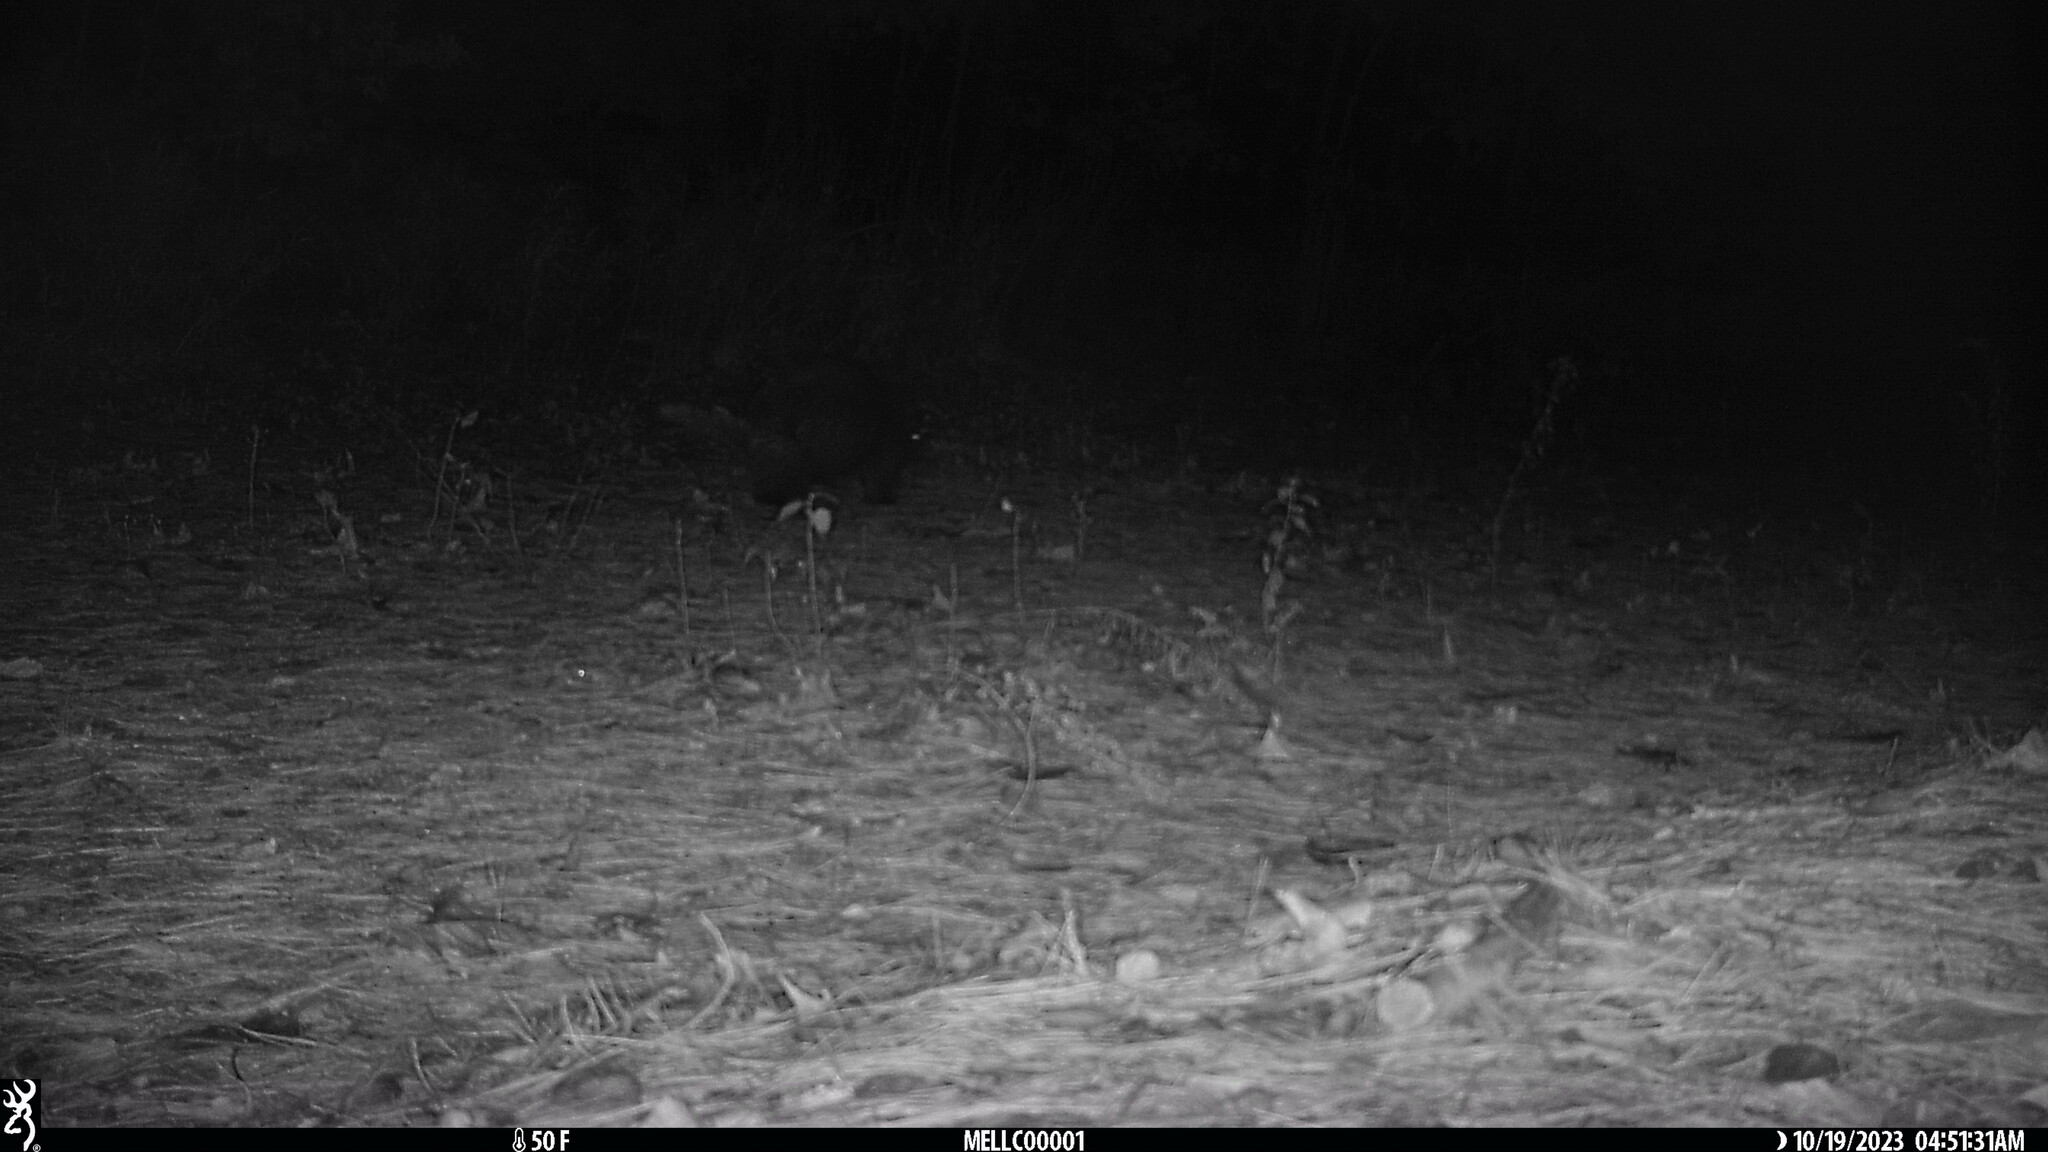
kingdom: Animalia
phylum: Chordata
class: Mammalia
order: Rodentia
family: Erethizontidae
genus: Erethizon
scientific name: Erethizon dorsatus
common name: North american porcupine
